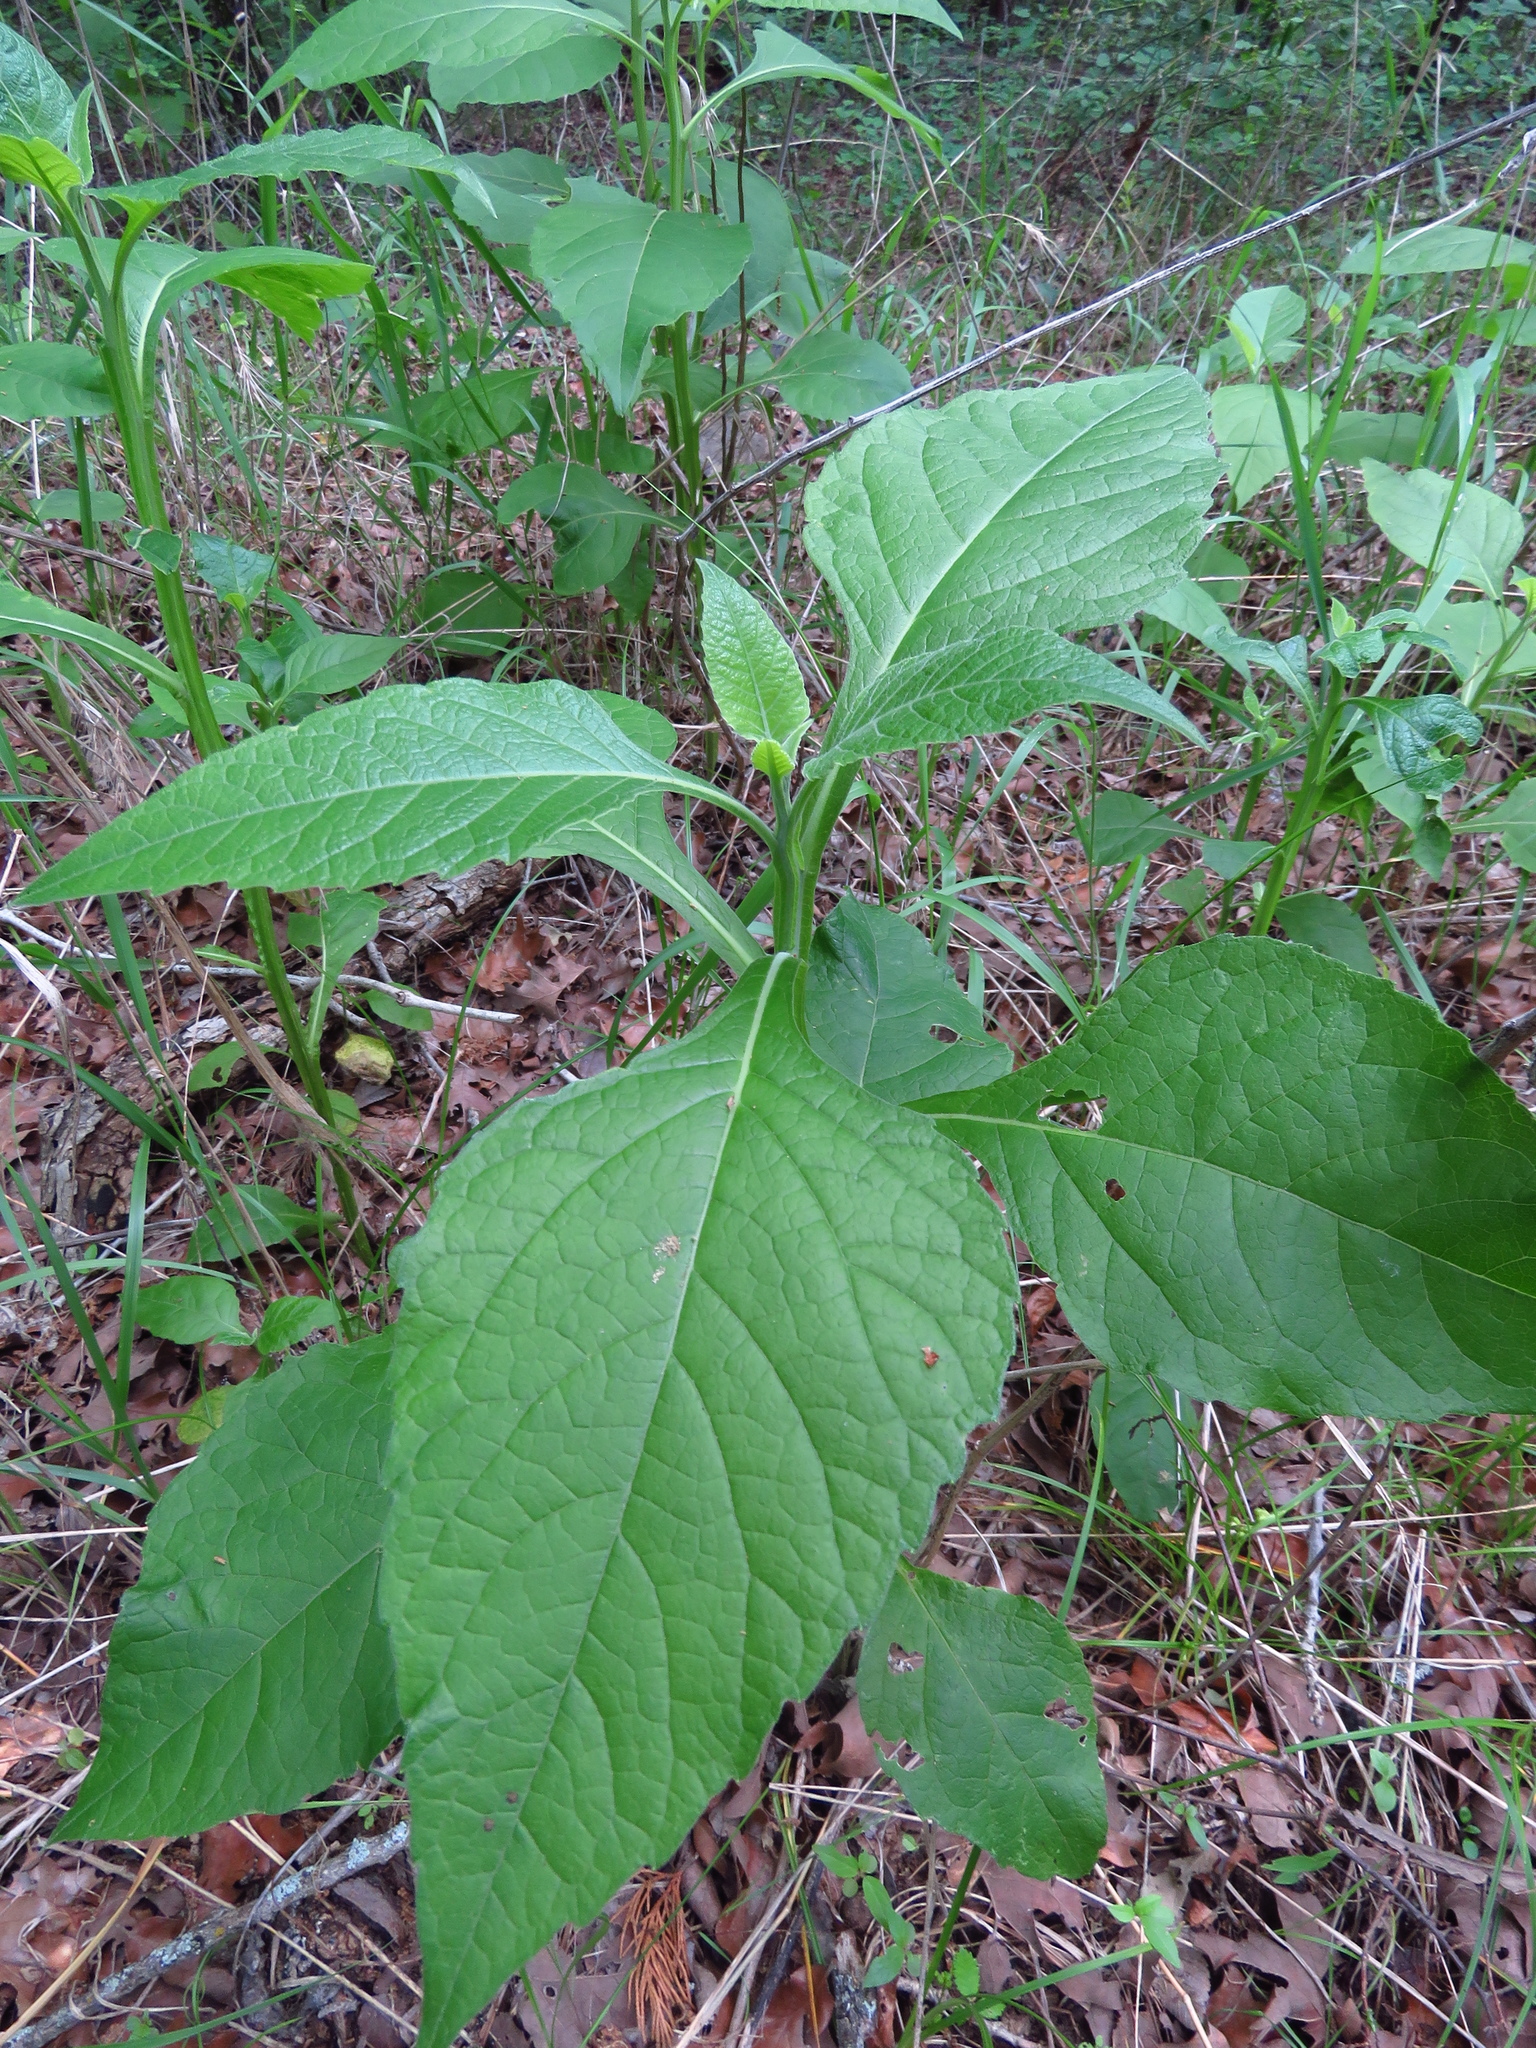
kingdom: Plantae
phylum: Tracheophyta
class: Magnoliopsida
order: Asterales
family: Asteraceae
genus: Verbesina
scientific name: Verbesina virginica
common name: Frostweed
